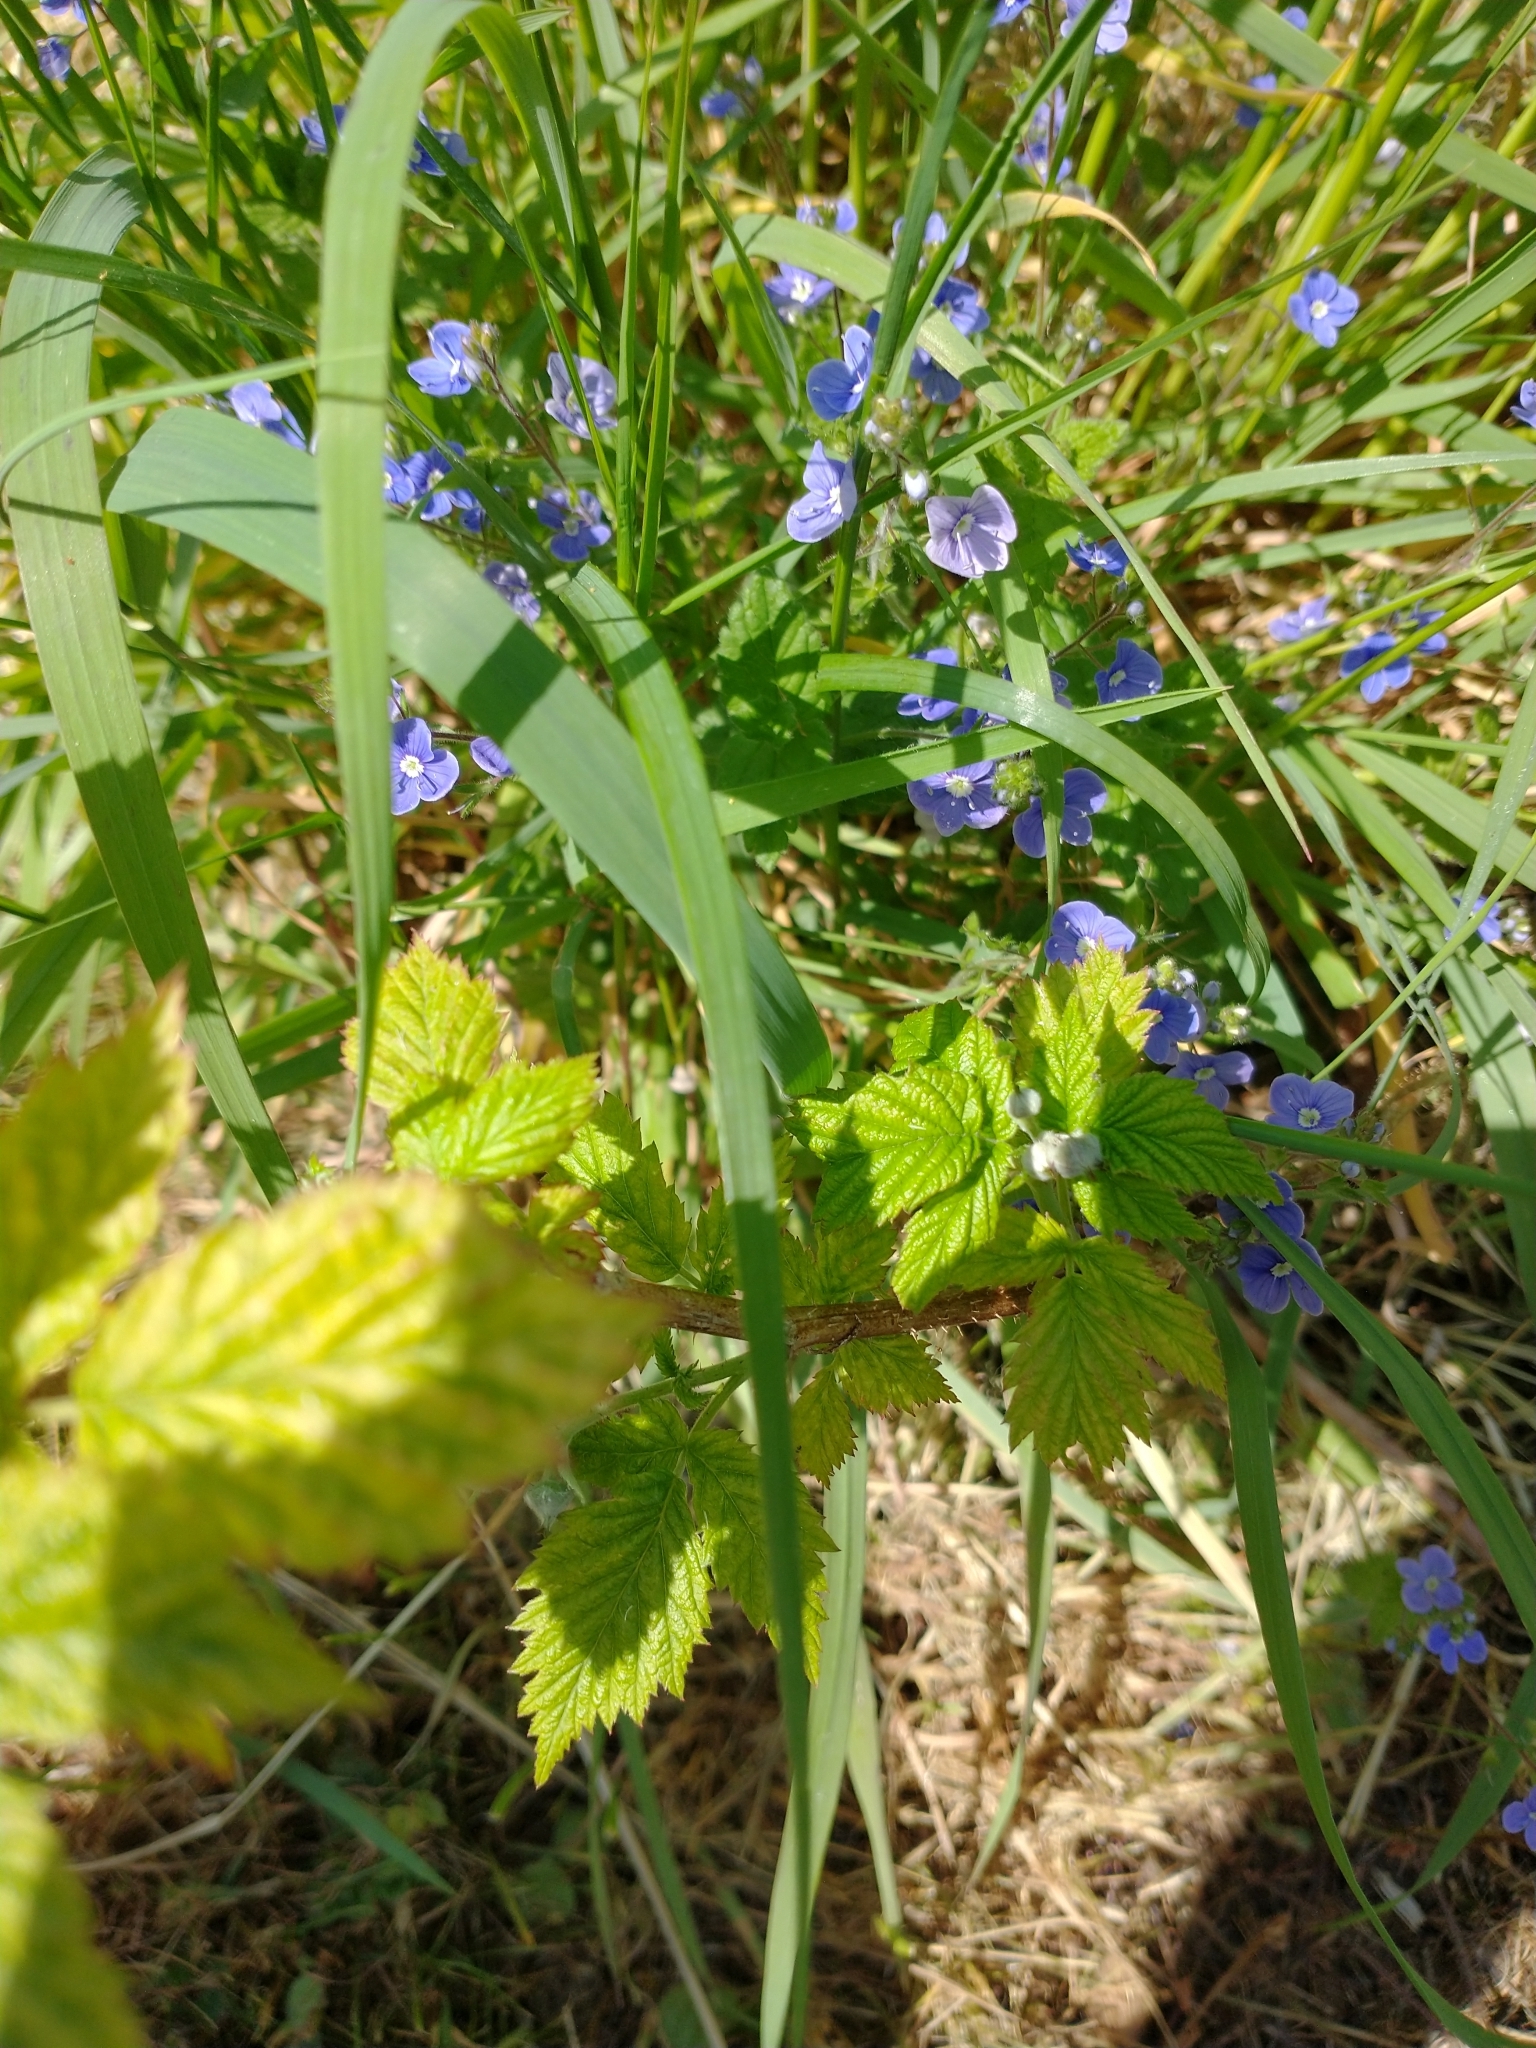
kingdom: Plantae
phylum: Tracheophyta
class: Magnoliopsida
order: Lamiales
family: Plantaginaceae
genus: Veronica
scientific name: Veronica chamaedrys
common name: Germander speedwell
